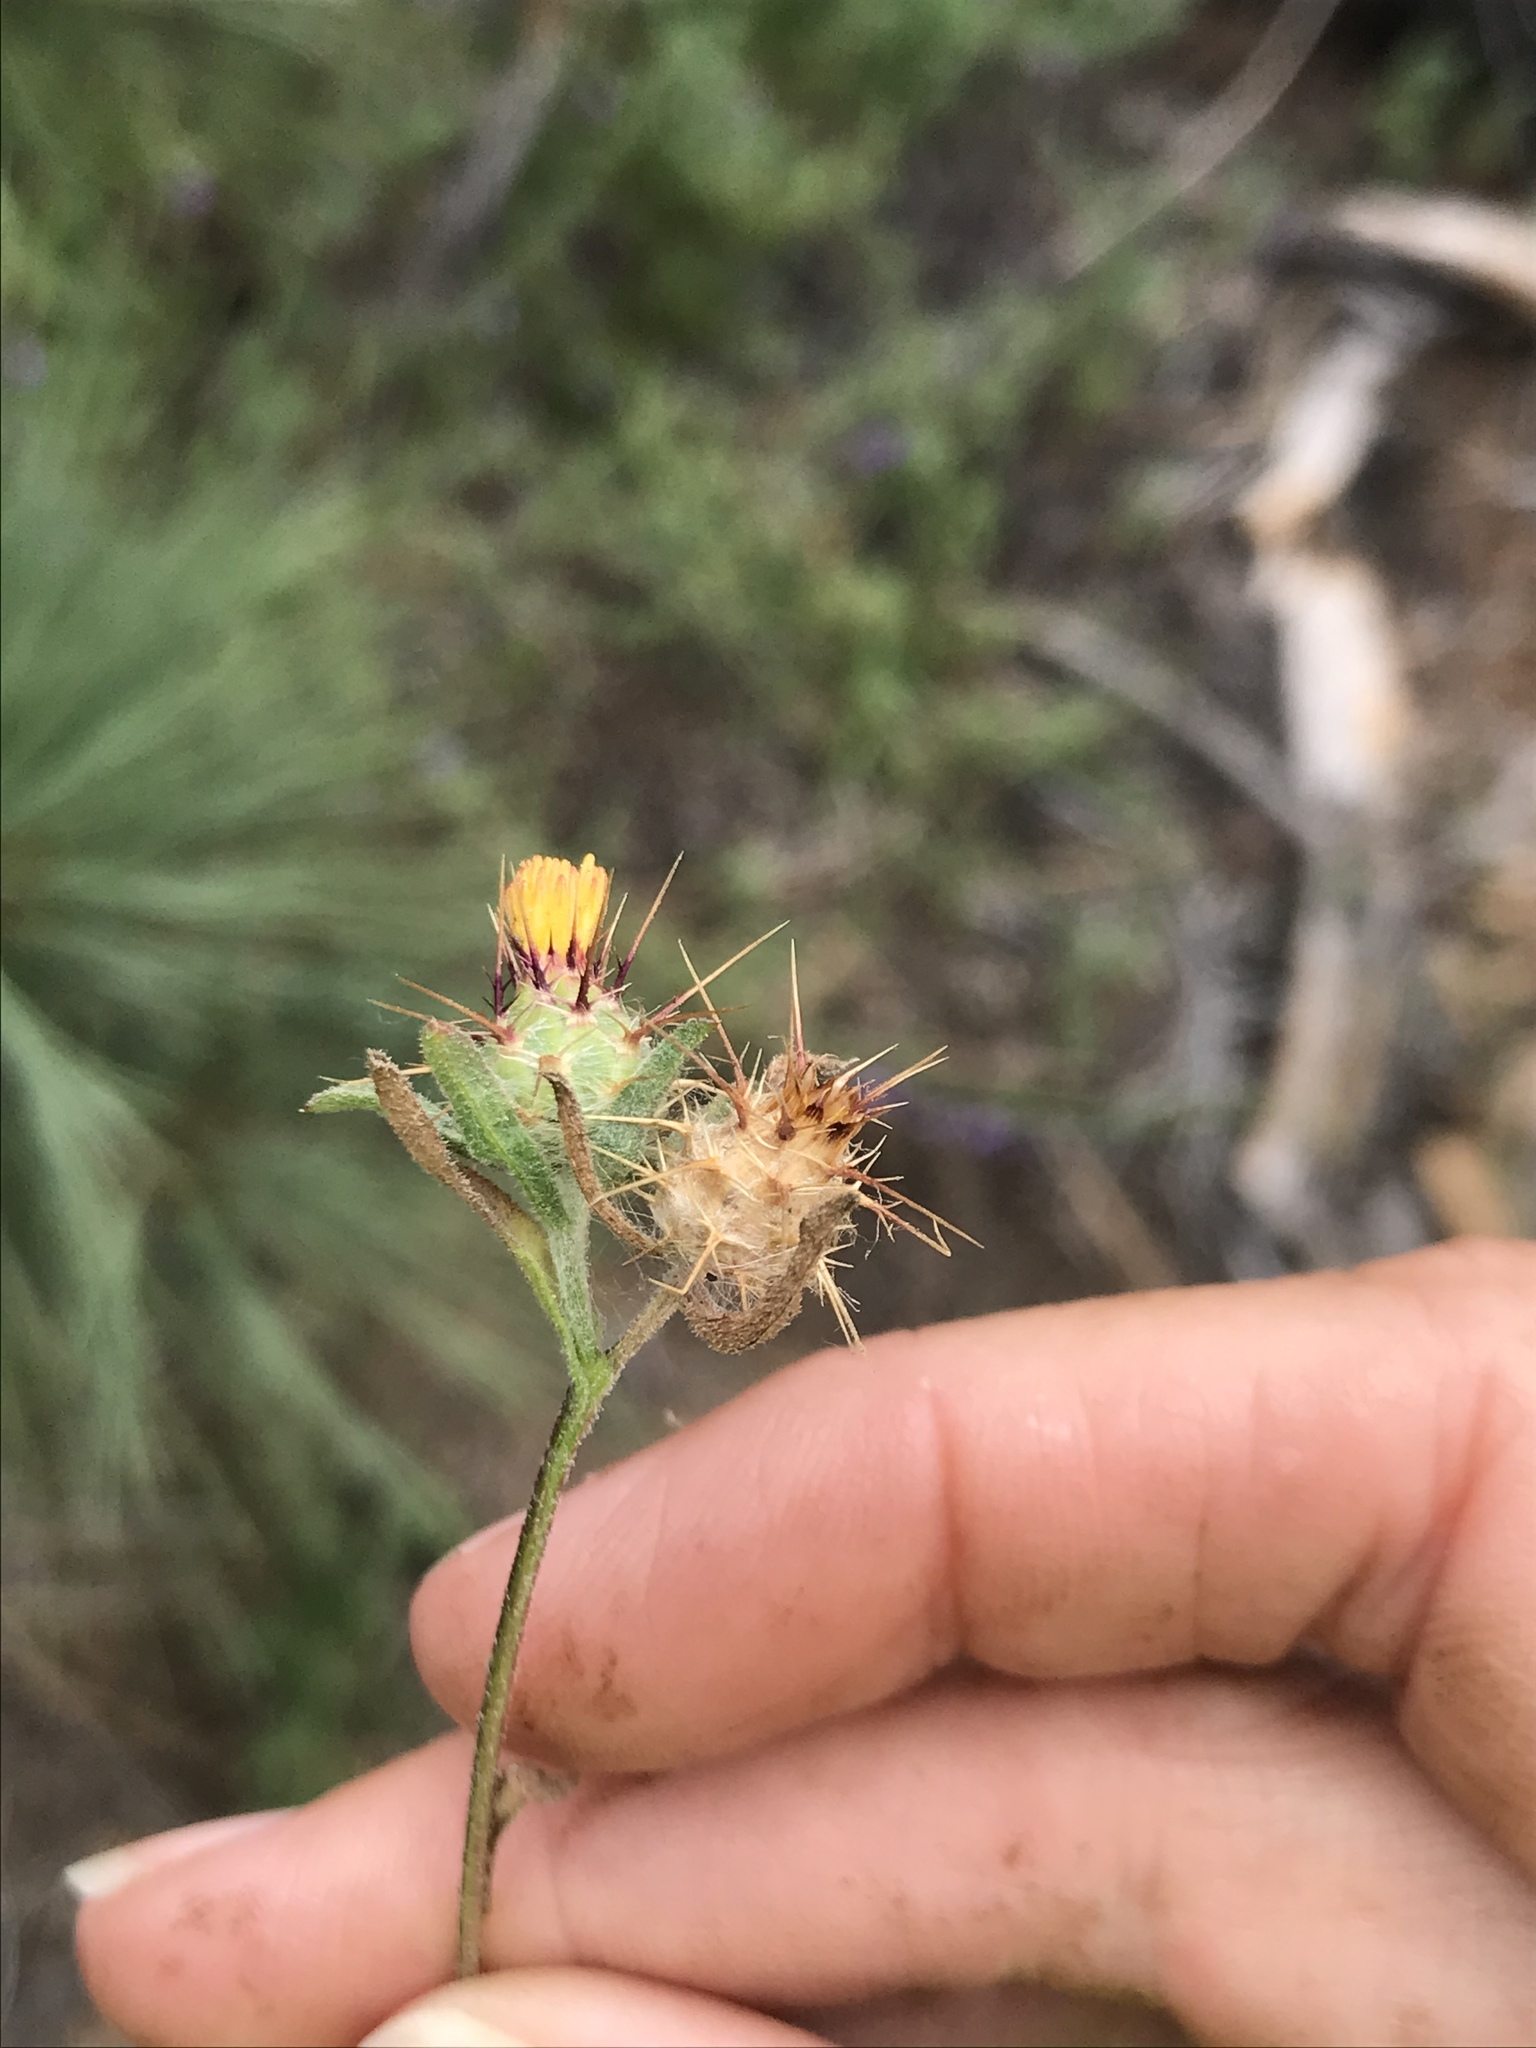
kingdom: Plantae
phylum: Tracheophyta
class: Magnoliopsida
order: Asterales
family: Asteraceae
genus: Centaurea
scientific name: Centaurea melitensis
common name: Maltese star-thistle
